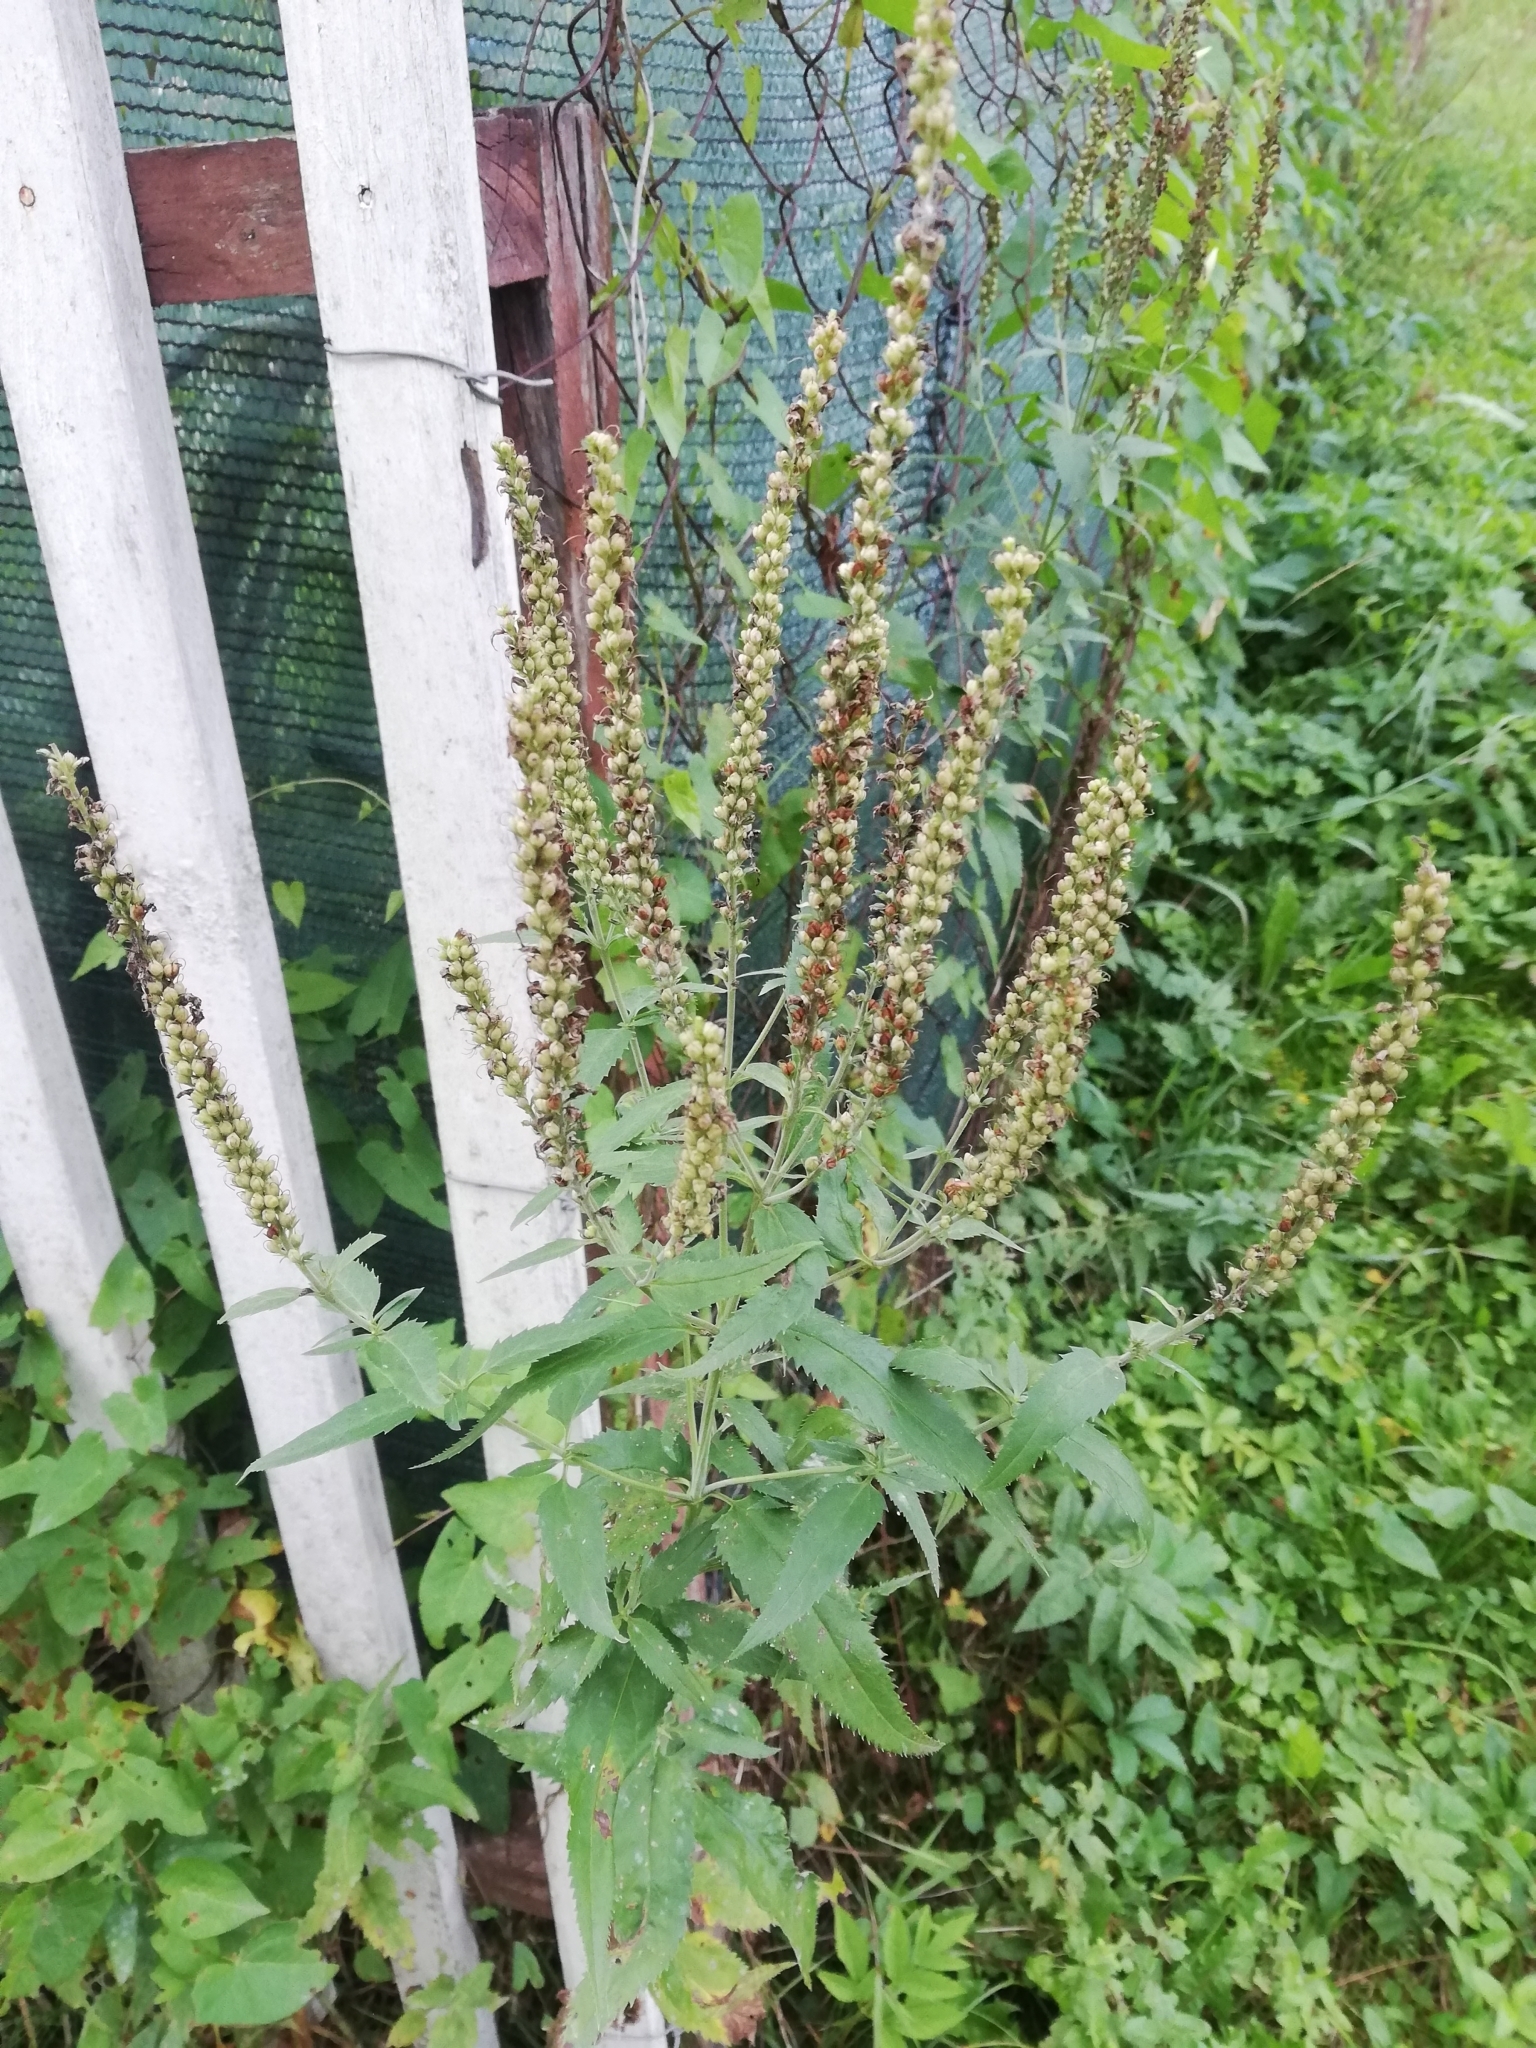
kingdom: Plantae
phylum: Tracheophyta
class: Magnoliopsida
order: Lamiales
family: Plantaginaceae
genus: Veronica
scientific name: Veronica longifolia
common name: Garden speedwell
